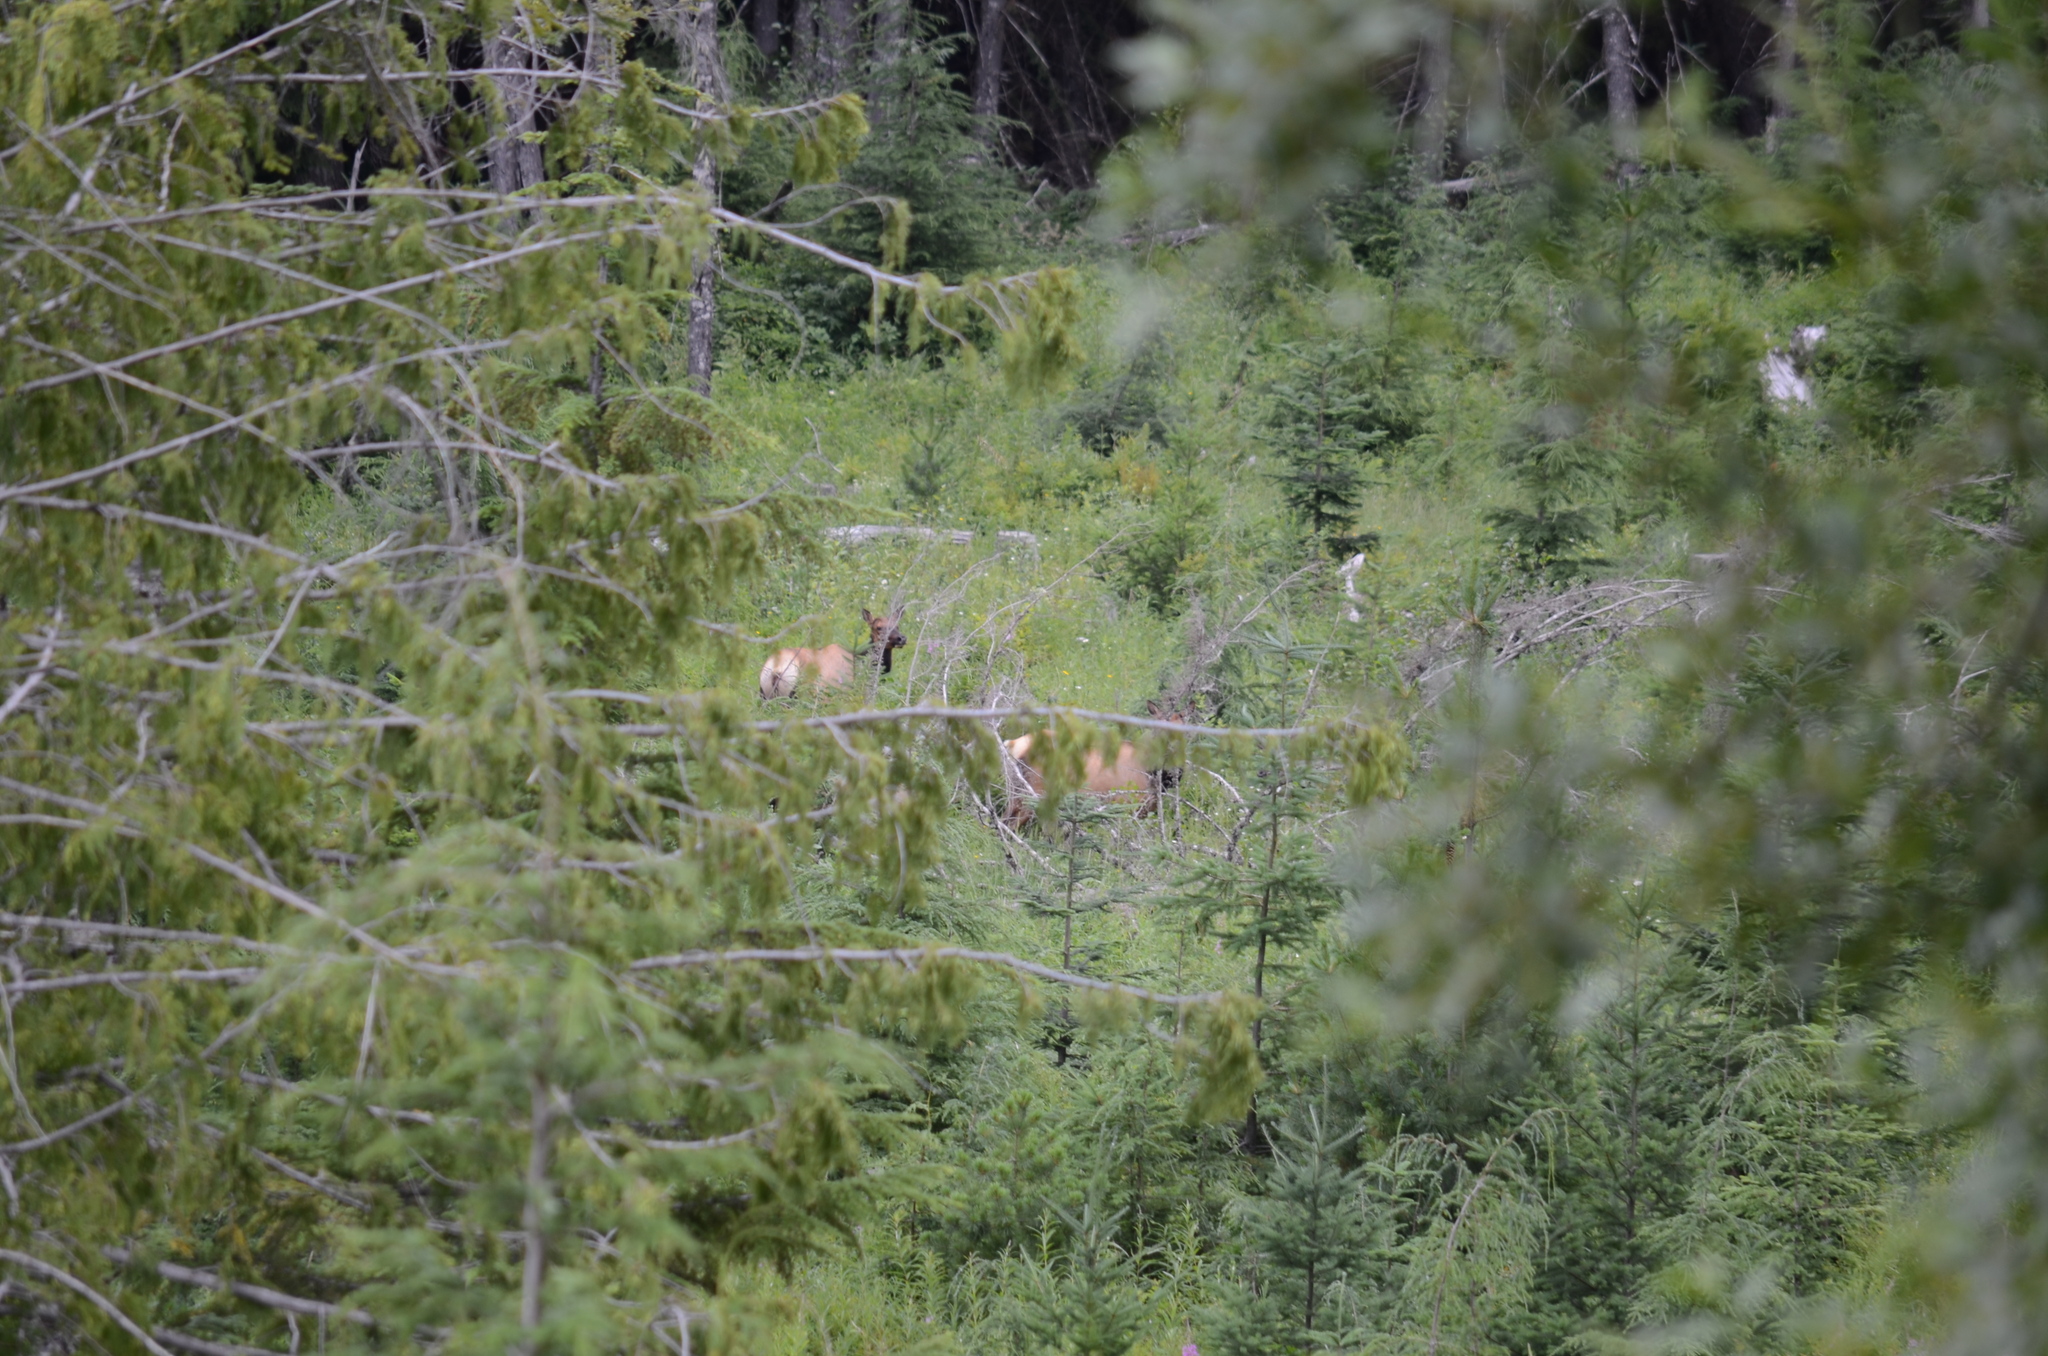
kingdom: Animalia
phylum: Chordata
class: Mammalia
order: Artiodactyla
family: Cervidae
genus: Cervus
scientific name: Cervus elaphus
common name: Red deer
